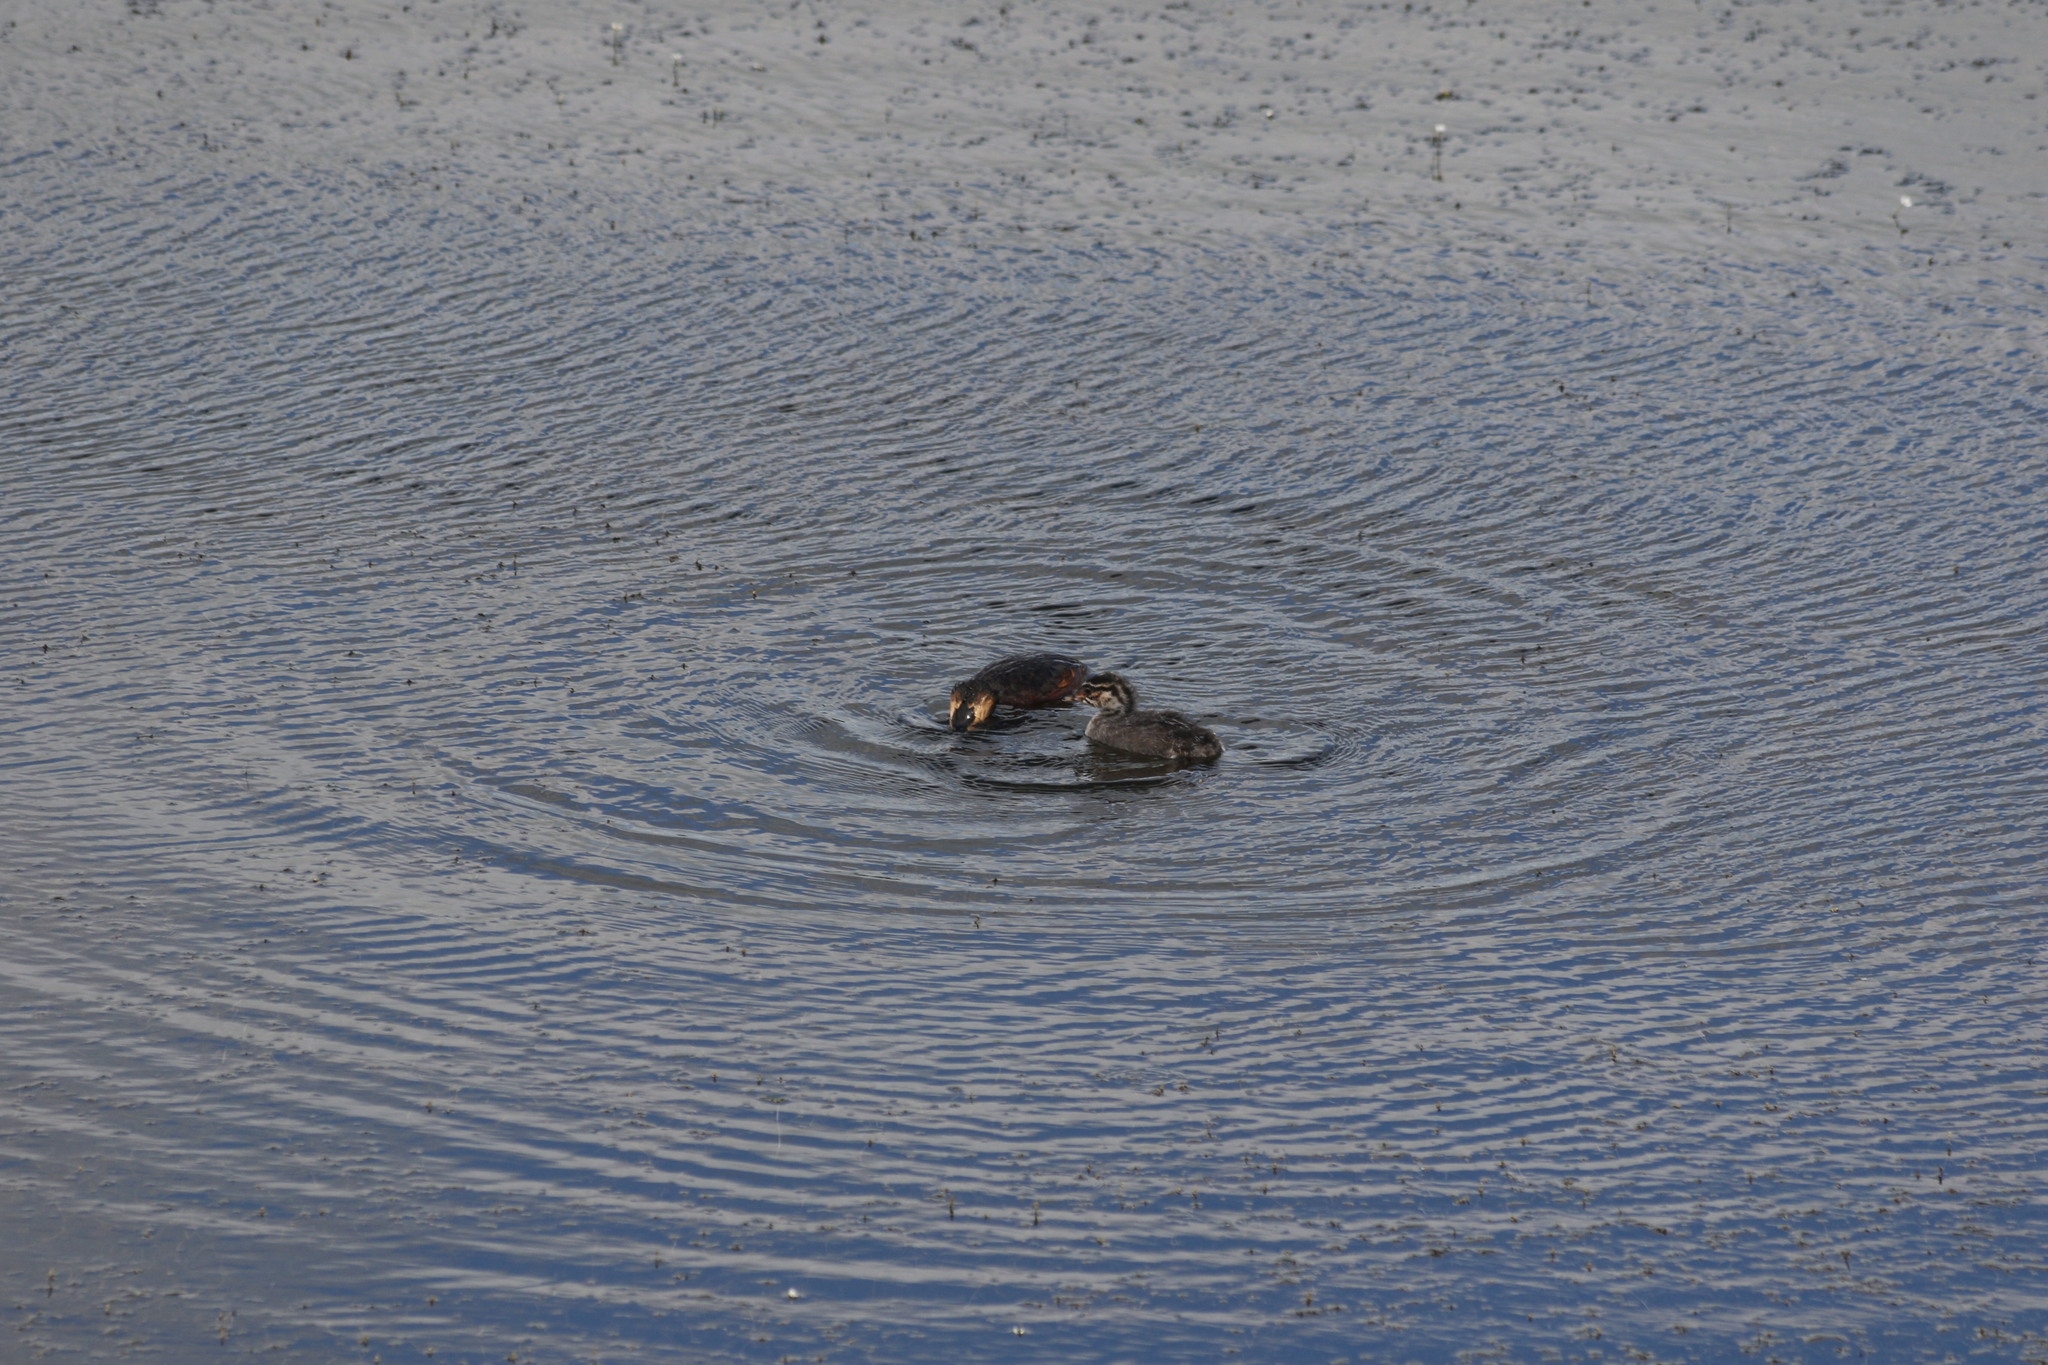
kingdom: Animalia
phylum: Chordata
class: Aves
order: Podicipediformes
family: Podicipedidae
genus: Podiceps
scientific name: Podiceps auritus
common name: Horned grebe
